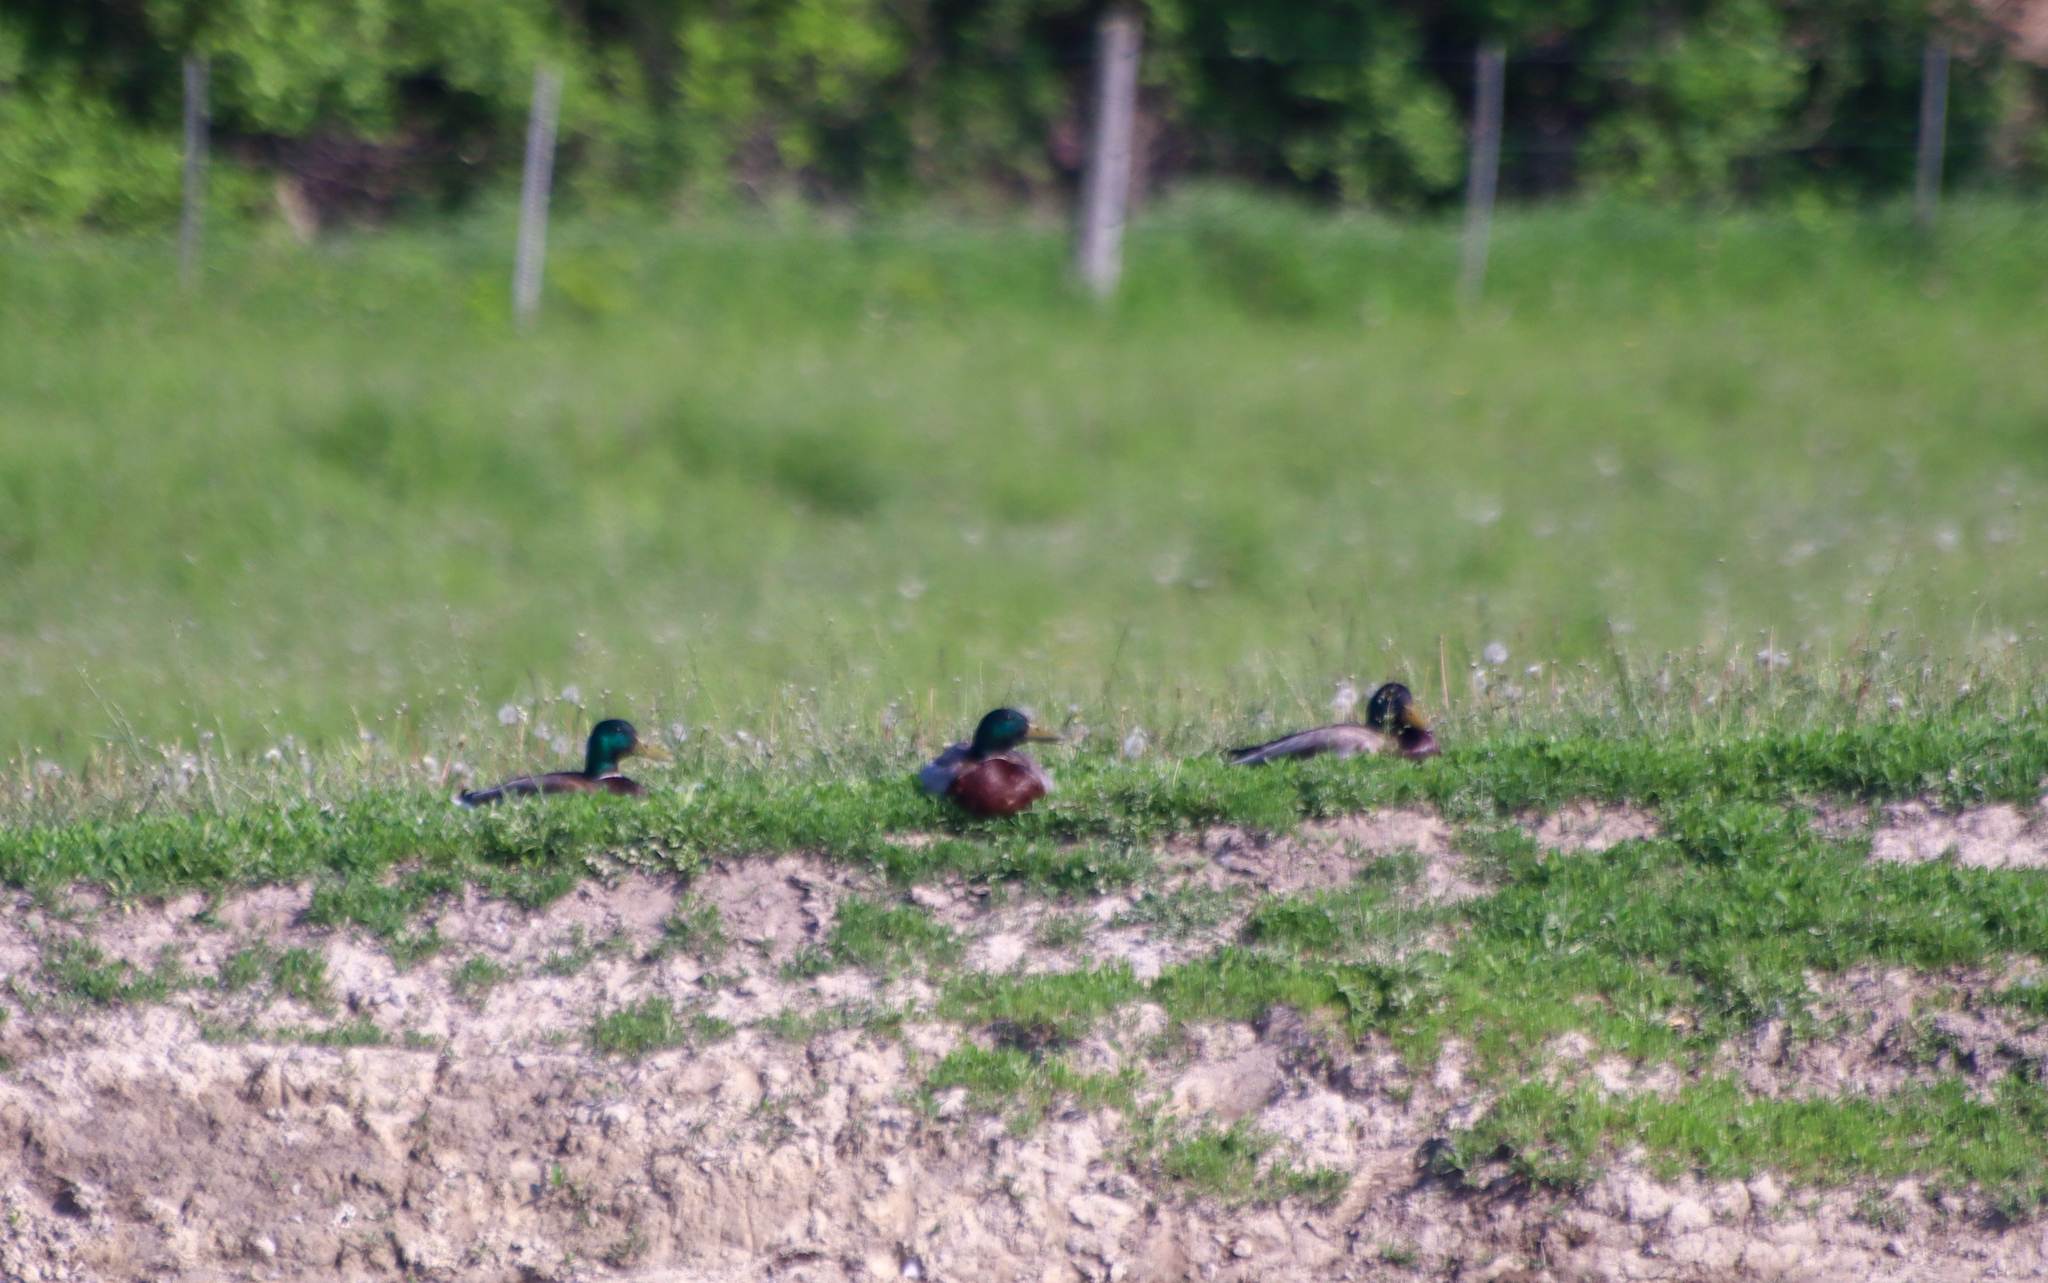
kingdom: Animalia
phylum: Chordata
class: Aves
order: Anseriformes
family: Anatidae
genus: Anas
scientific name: Anas platyrhynchos
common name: Mallard
